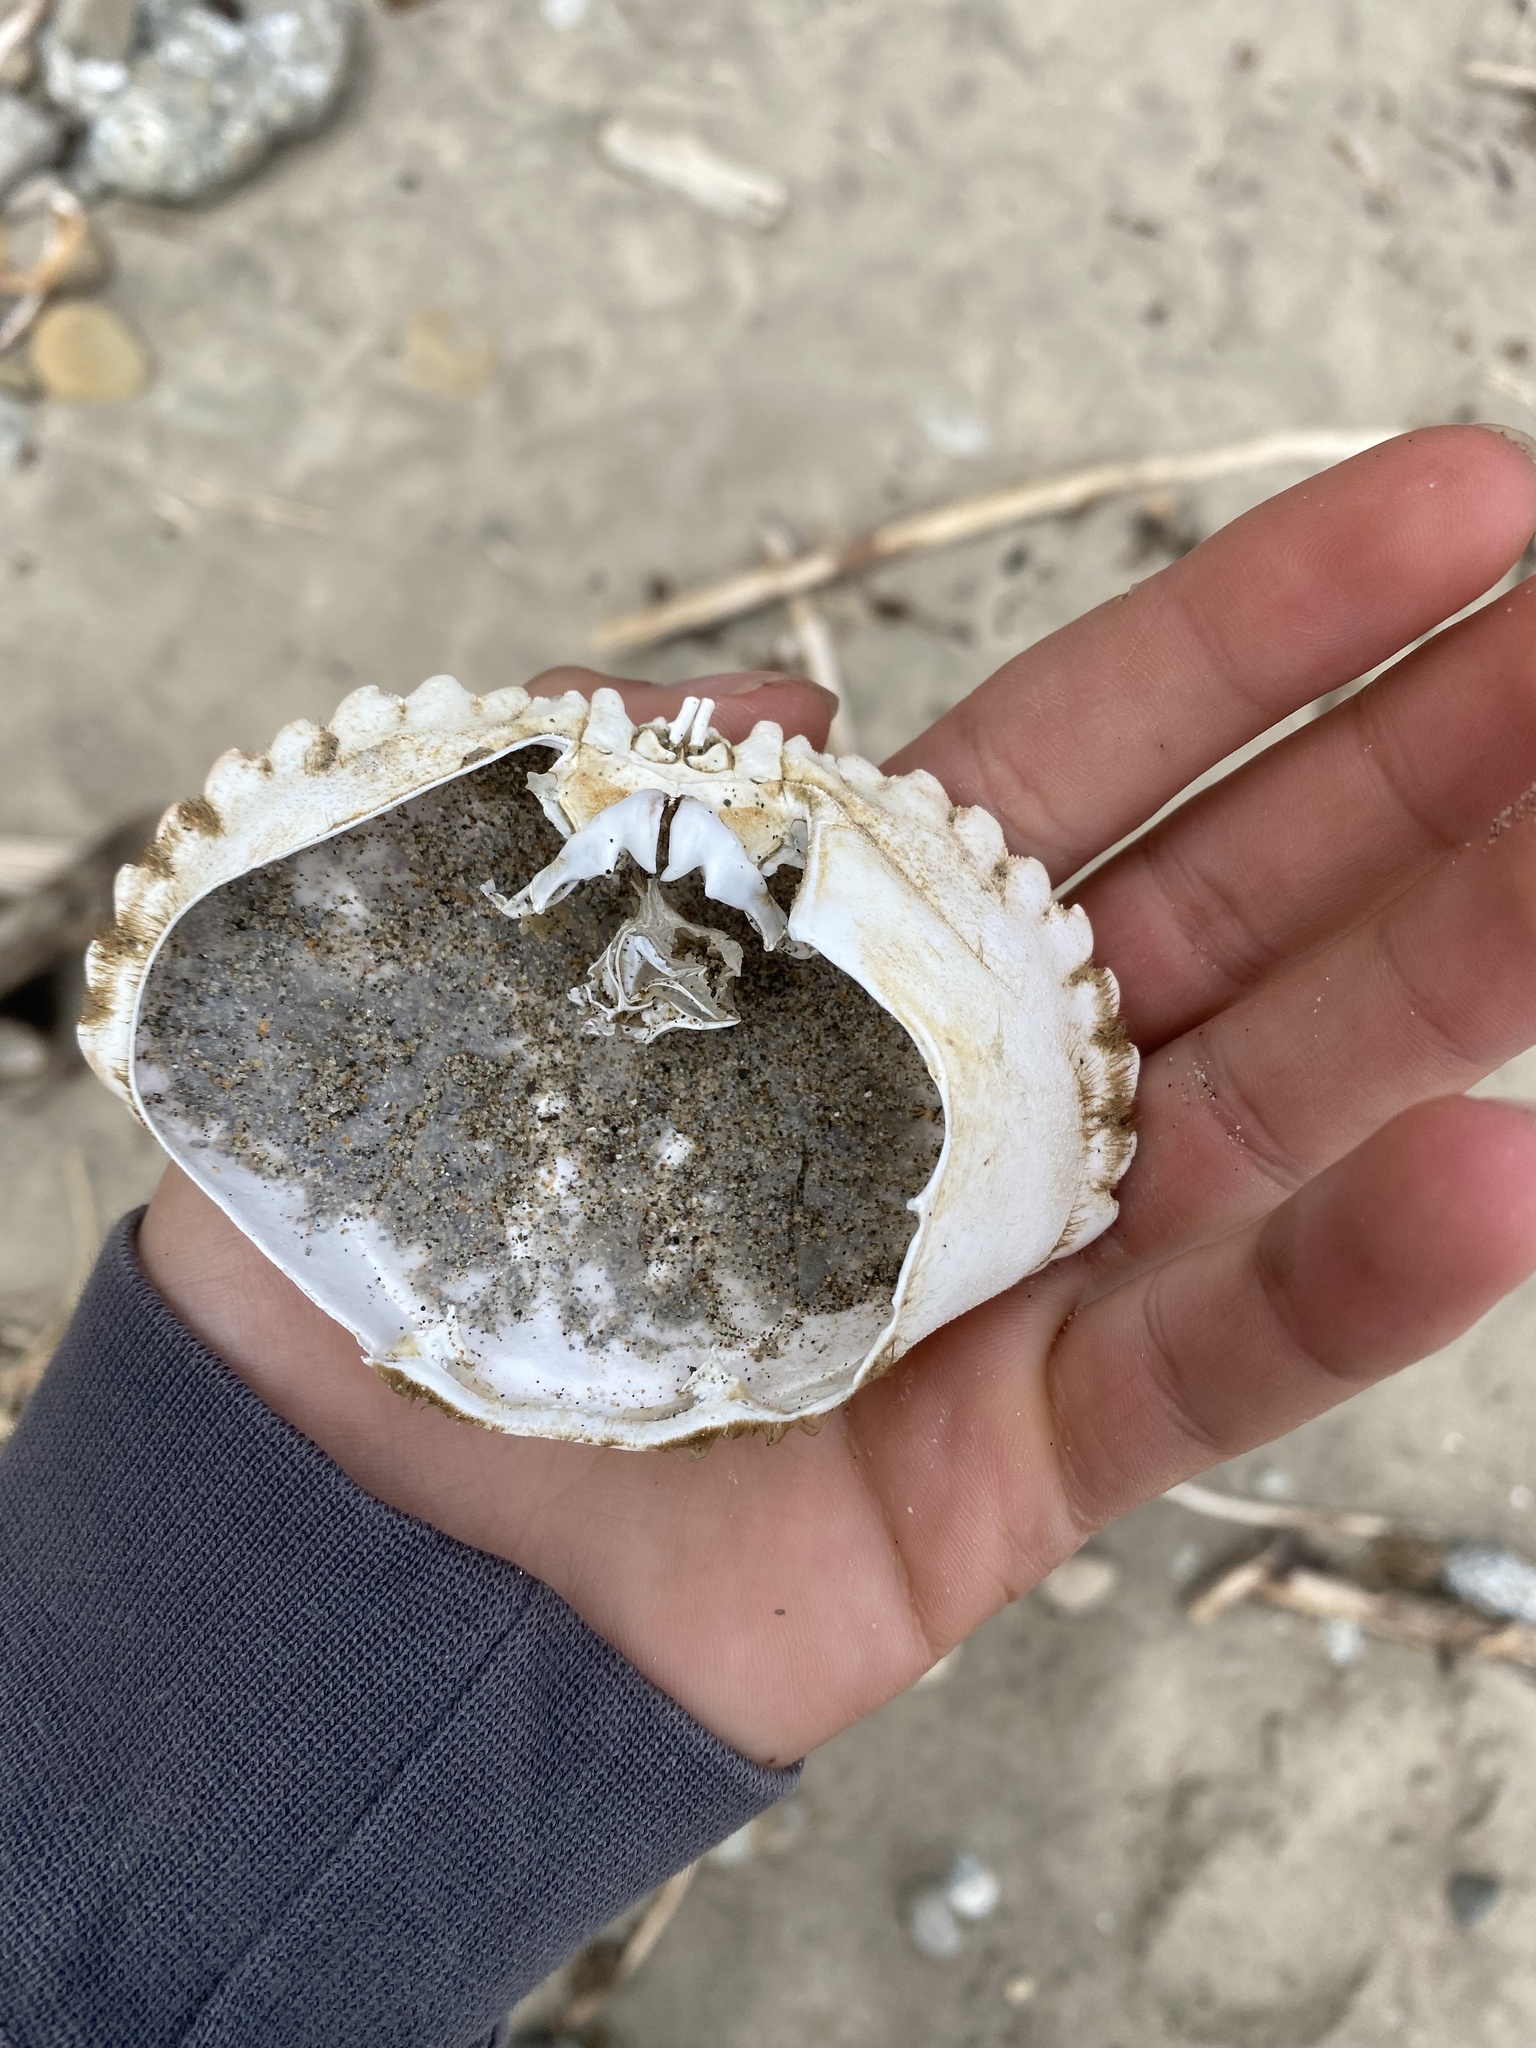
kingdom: Animalia
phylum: Arthropoda
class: Malacostraca
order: Decapoda
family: Cancridae
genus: Metacarcinus
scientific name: Metacarcinus anthonyi
